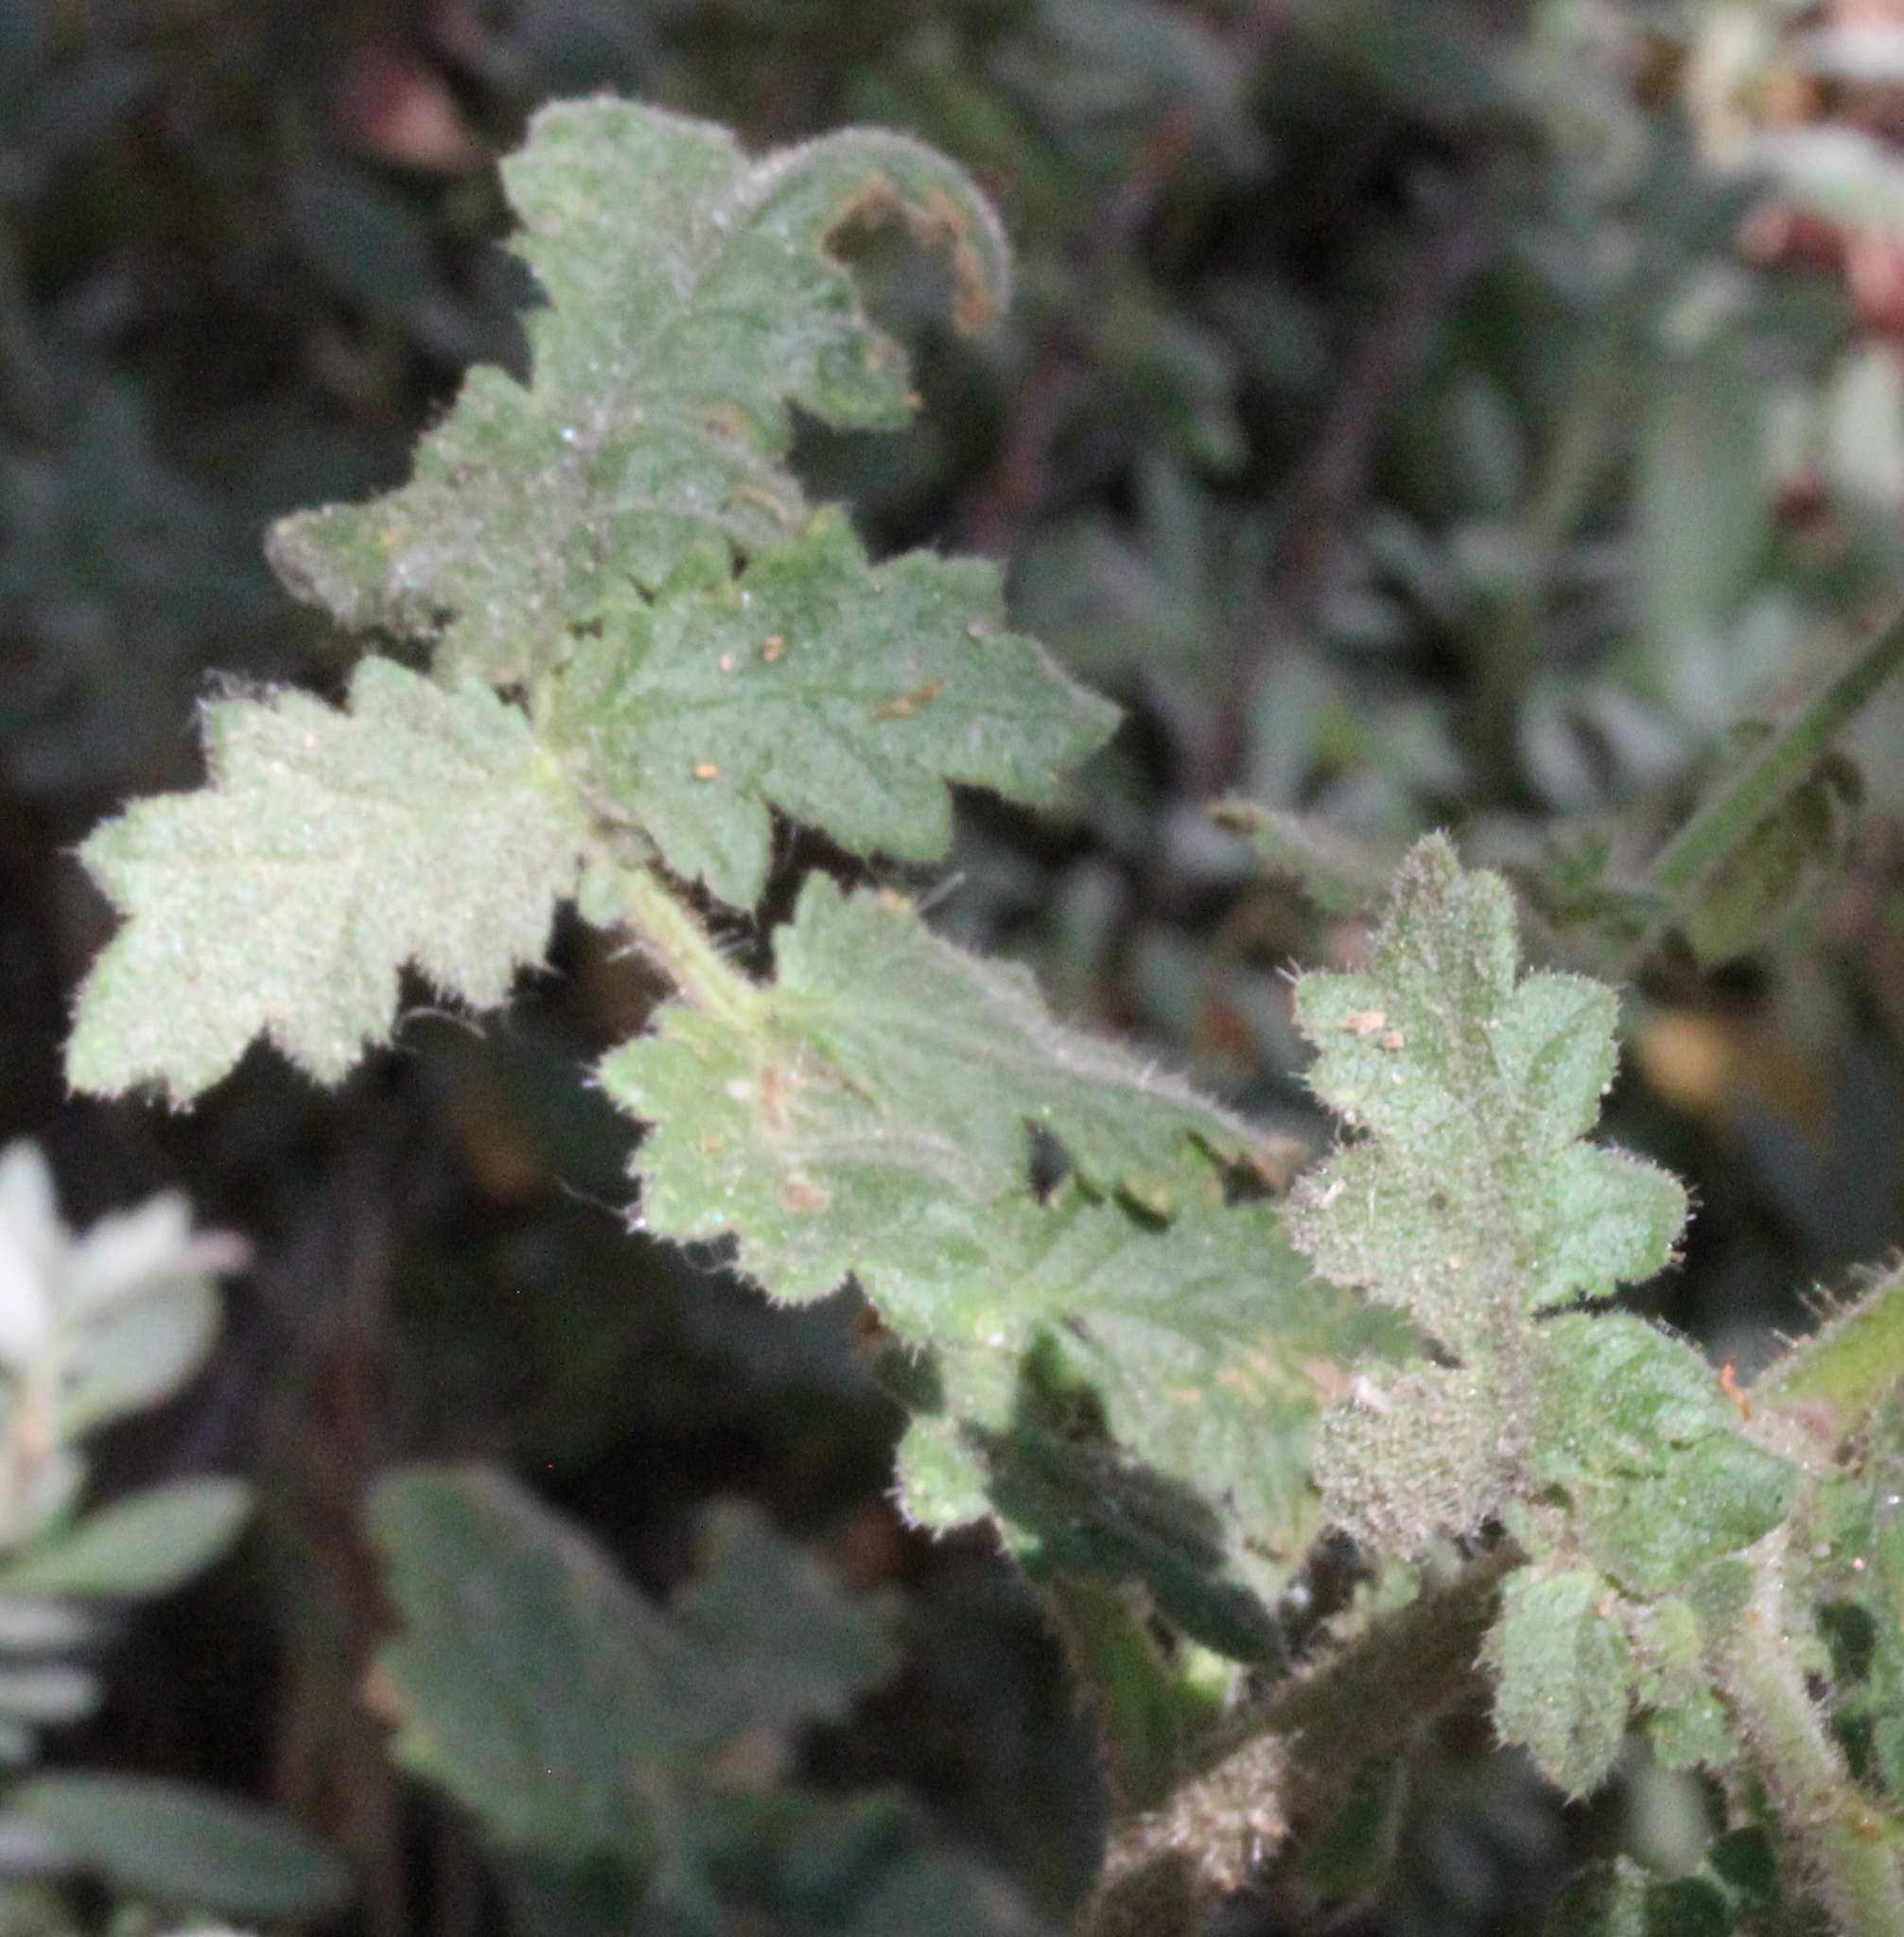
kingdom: Plantae
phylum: Tracheophyta
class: Magnoliopsida
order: Boraginales
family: Hydrophyllaceae
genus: Phacelia
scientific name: Phacelia suffrutescens
